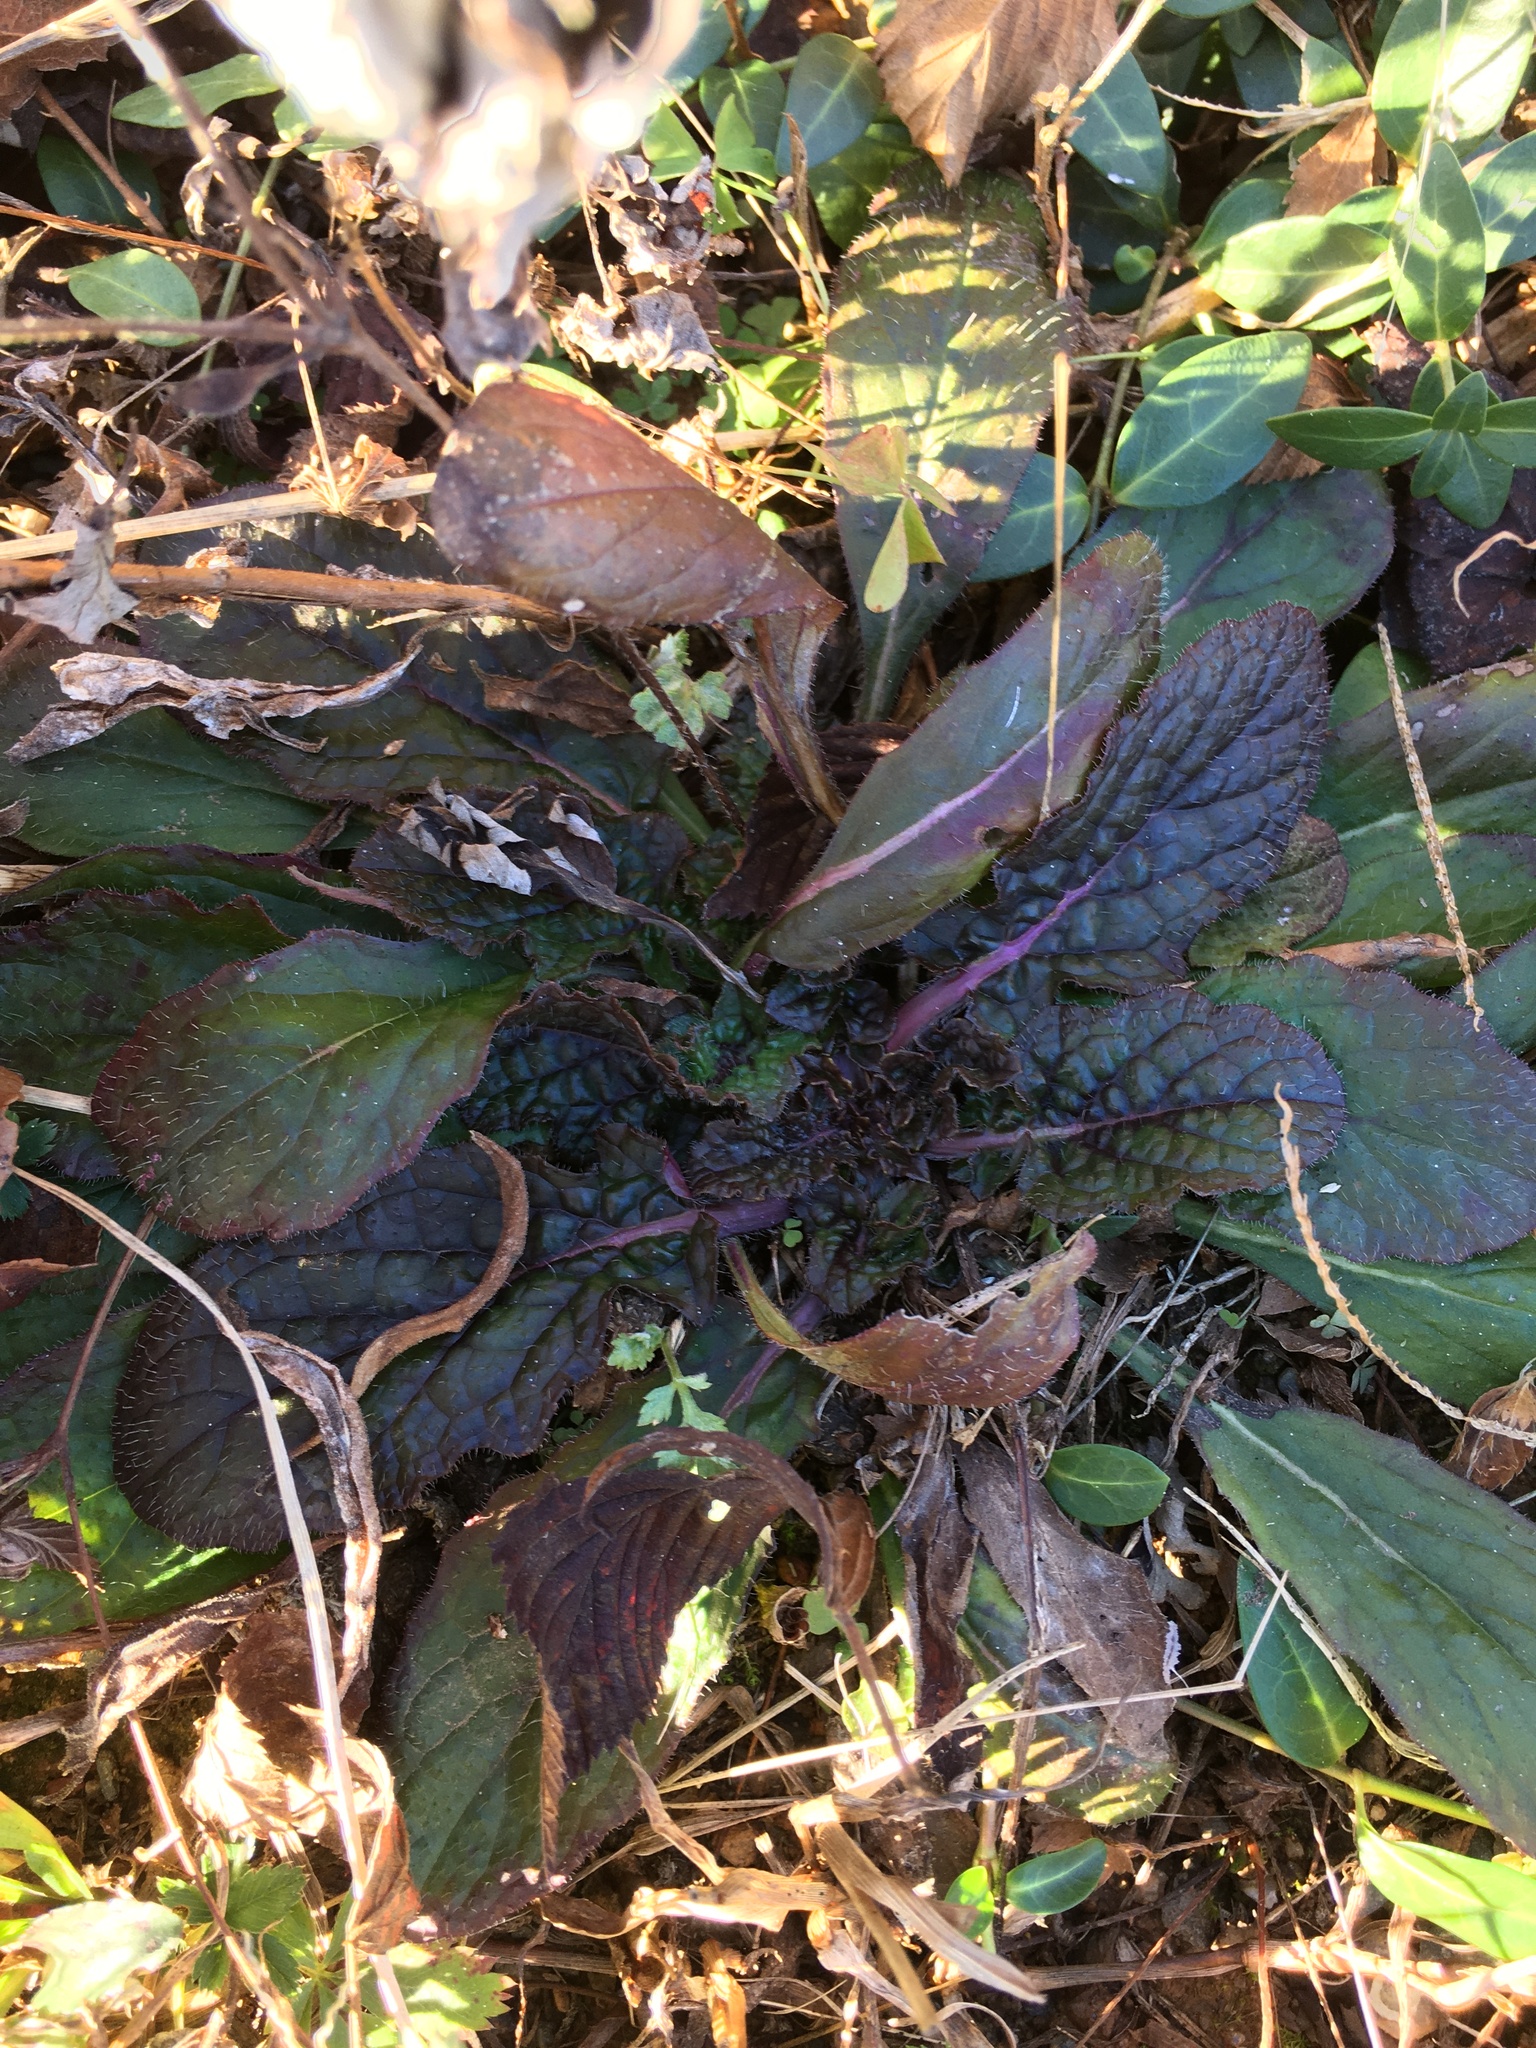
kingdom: Plantae
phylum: Tracheophyta
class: Magnoliopsida
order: Lamiales
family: Lamiaceae
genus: Salvia
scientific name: Salvia lyrata
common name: Cancerweed
